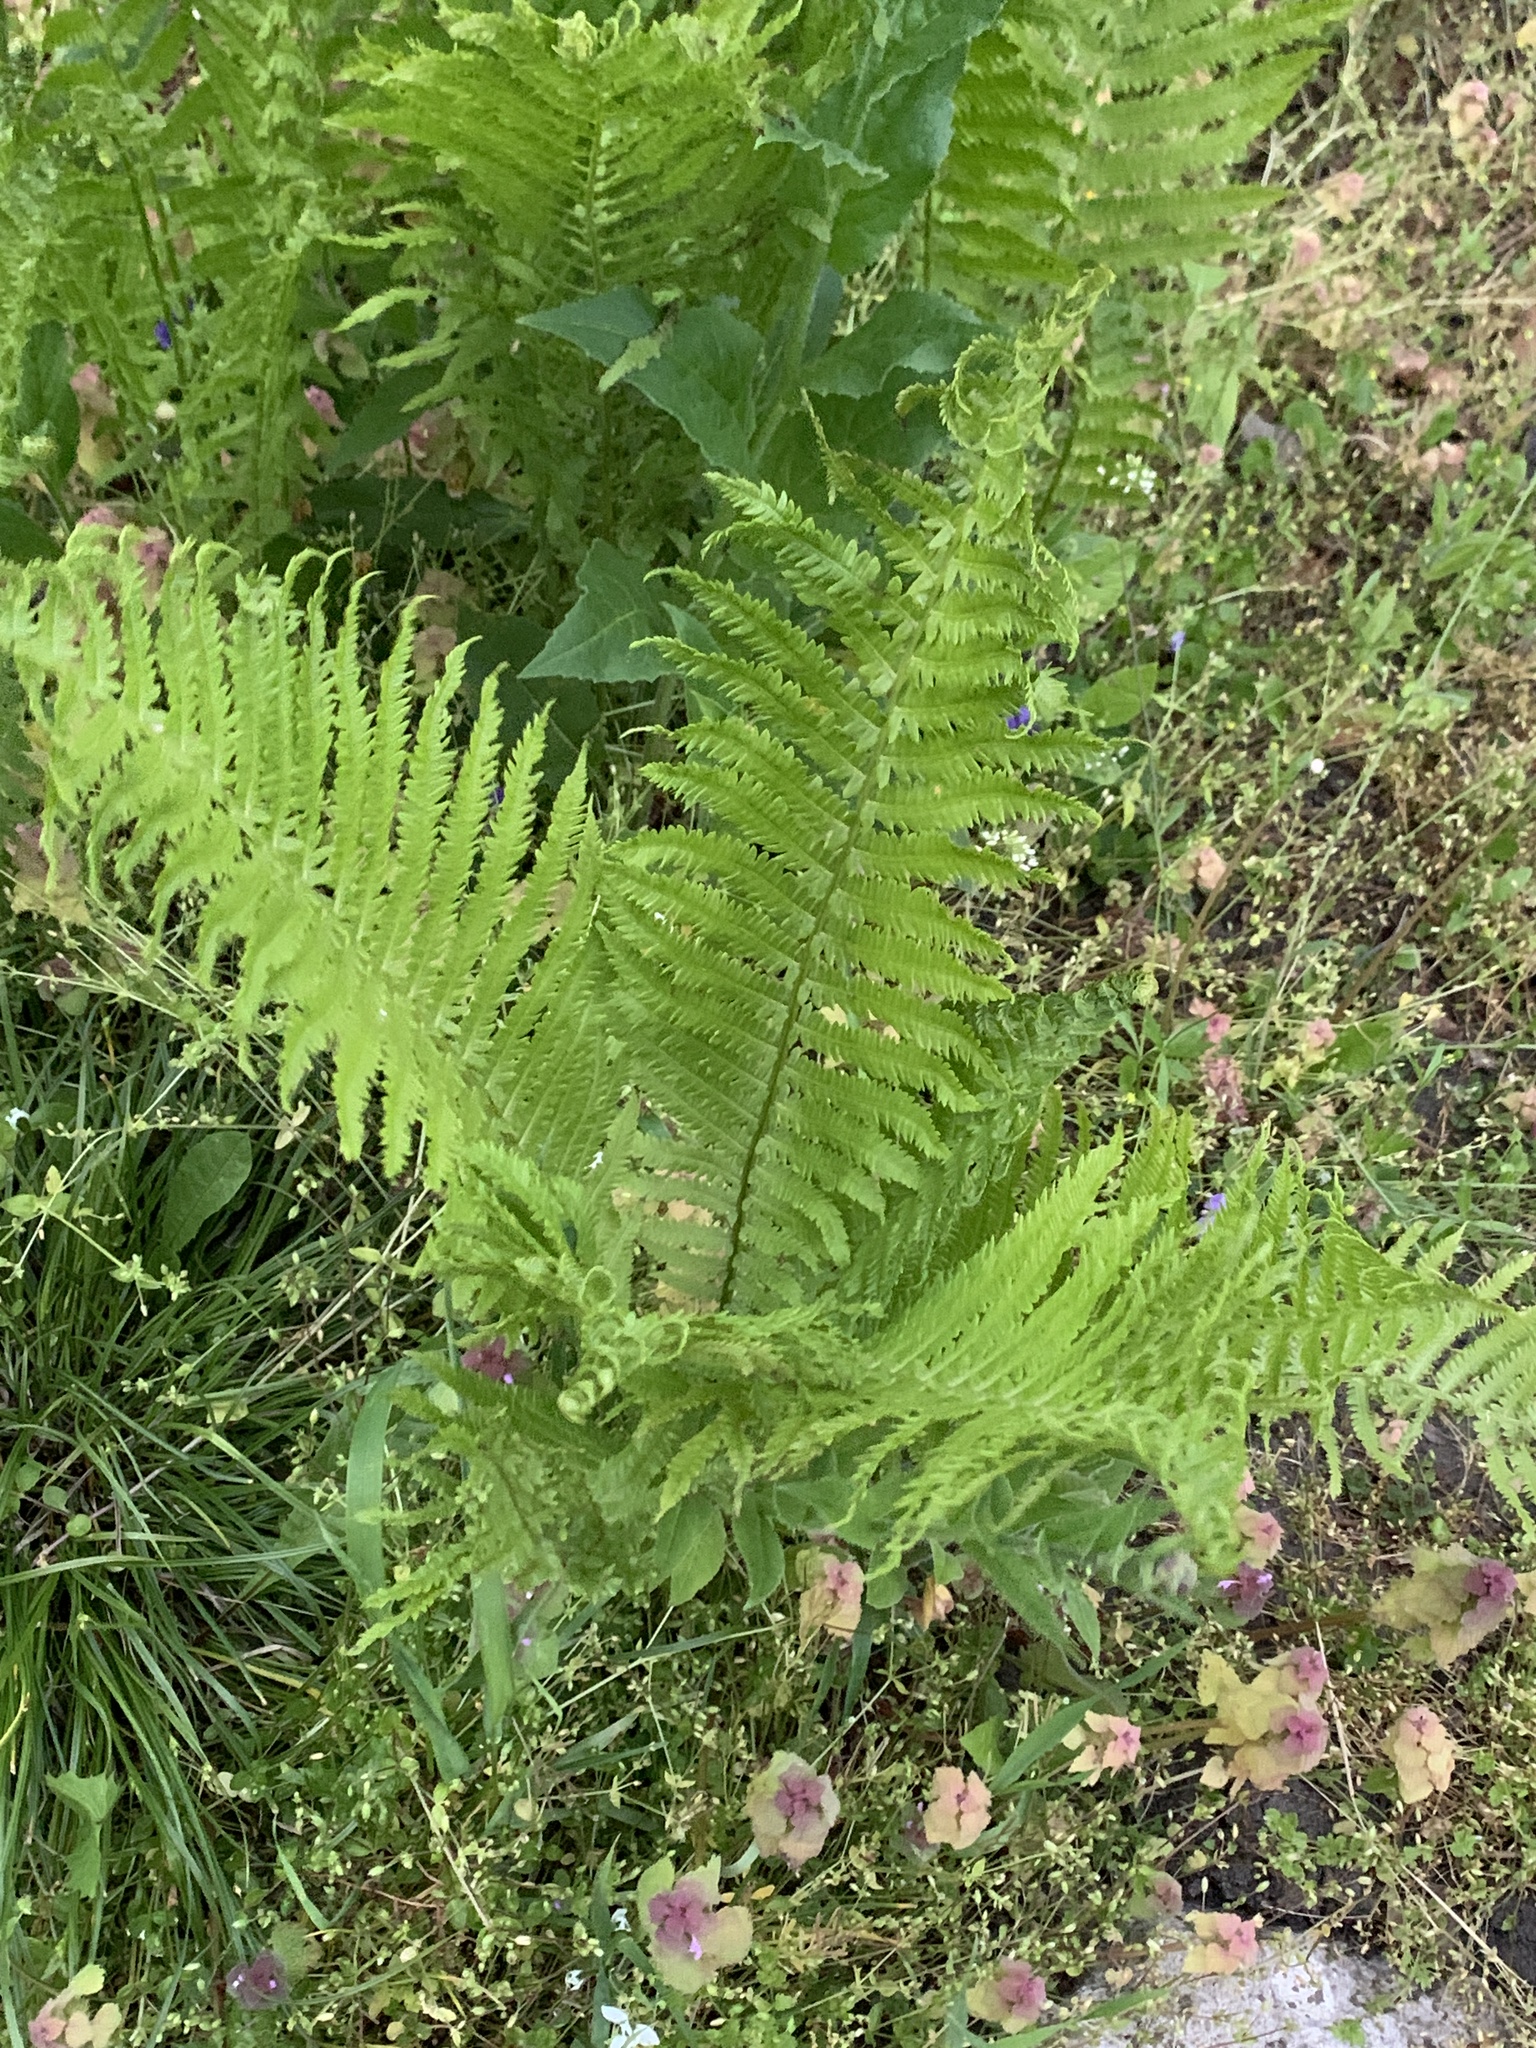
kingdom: Plantae
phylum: Tracheophyta
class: Polypodiopsida
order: Polypodiales
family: Onocleaceae
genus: Matteuccia
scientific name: Matteuccia struthiopteris
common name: Ostrich fern
